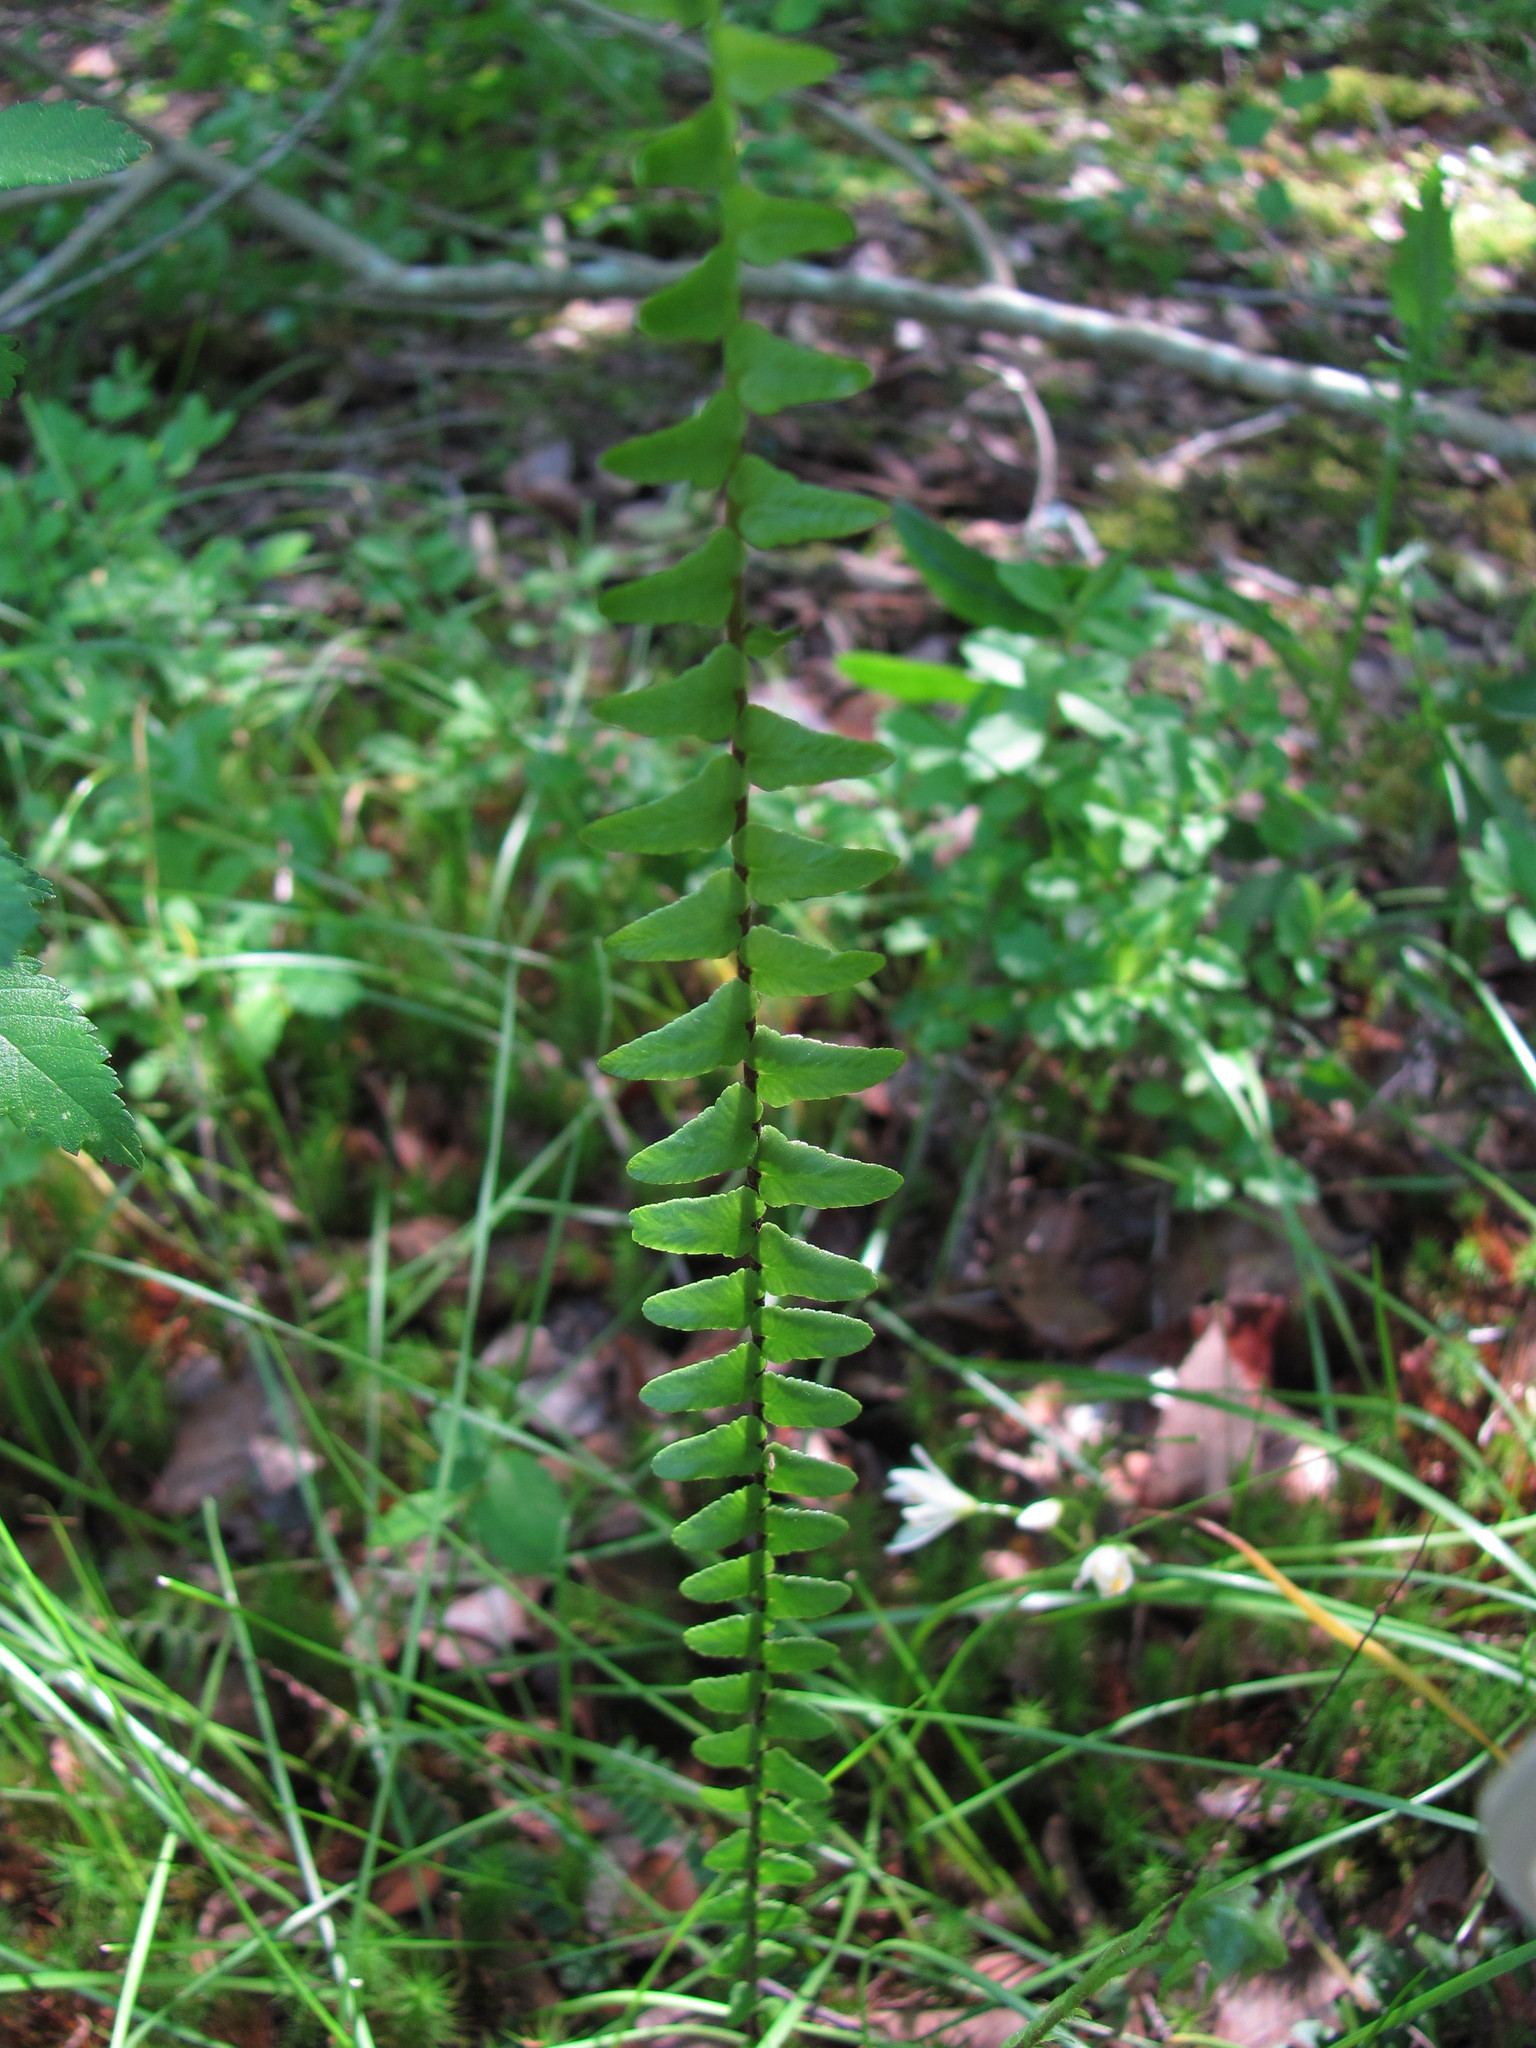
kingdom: Plantae
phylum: Tracheophyta
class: Polypodiopsida
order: Polypodiales
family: Aspleniaceae
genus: Asplenium
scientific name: Asplenium platyneuron
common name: Ebony spleenwort
